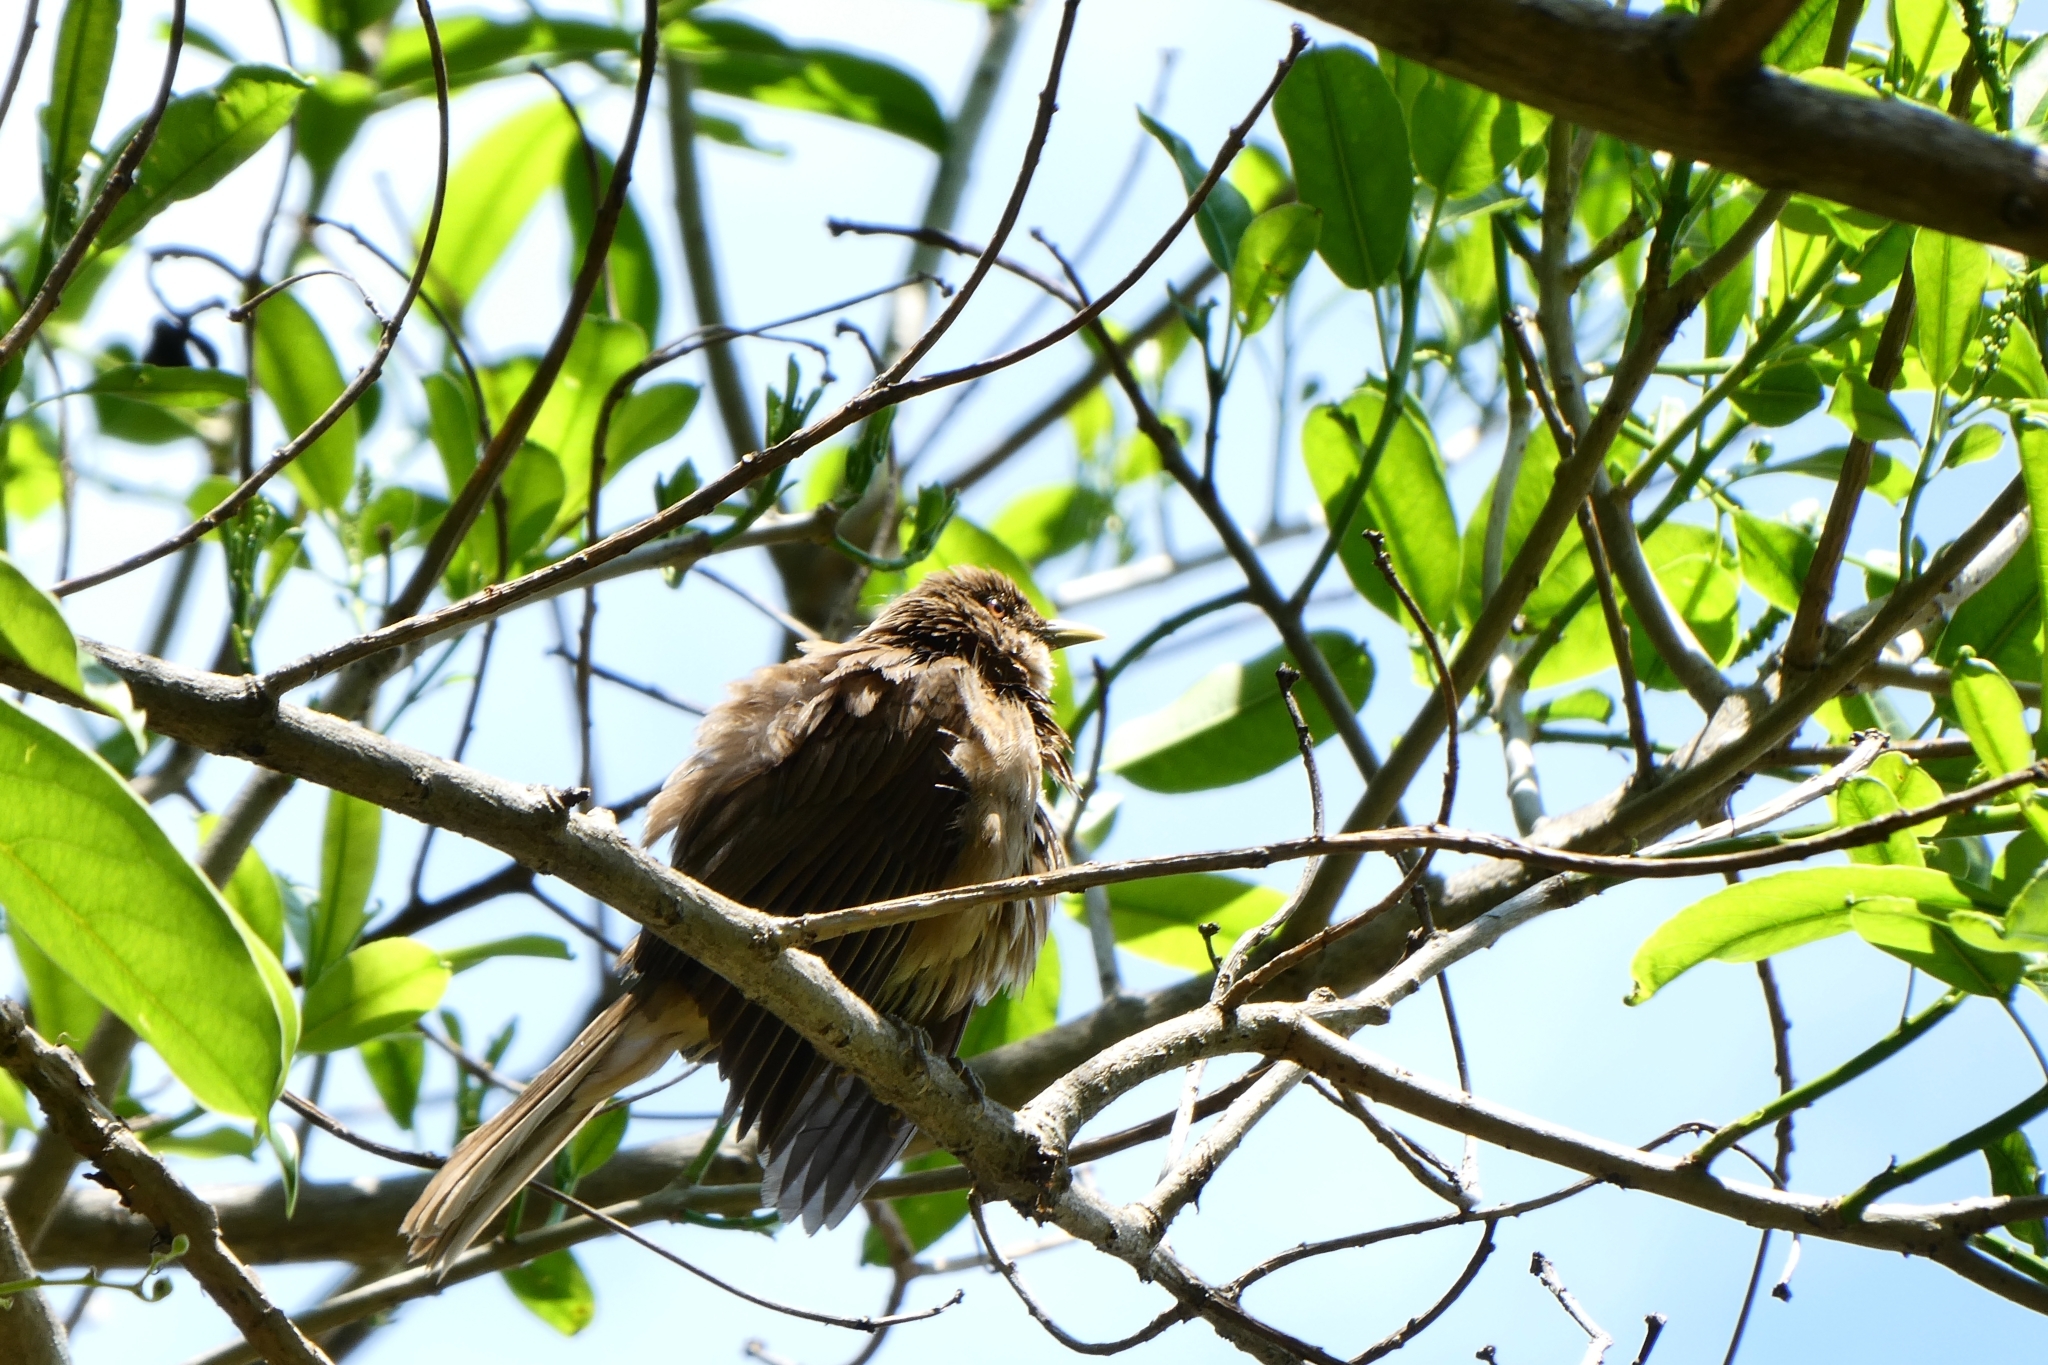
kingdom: Animalia
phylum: Chordata
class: Aves
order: Passeriformes
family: Turdidae
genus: Turdus
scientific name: Turdus grayi
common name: Clay-colored thrush
